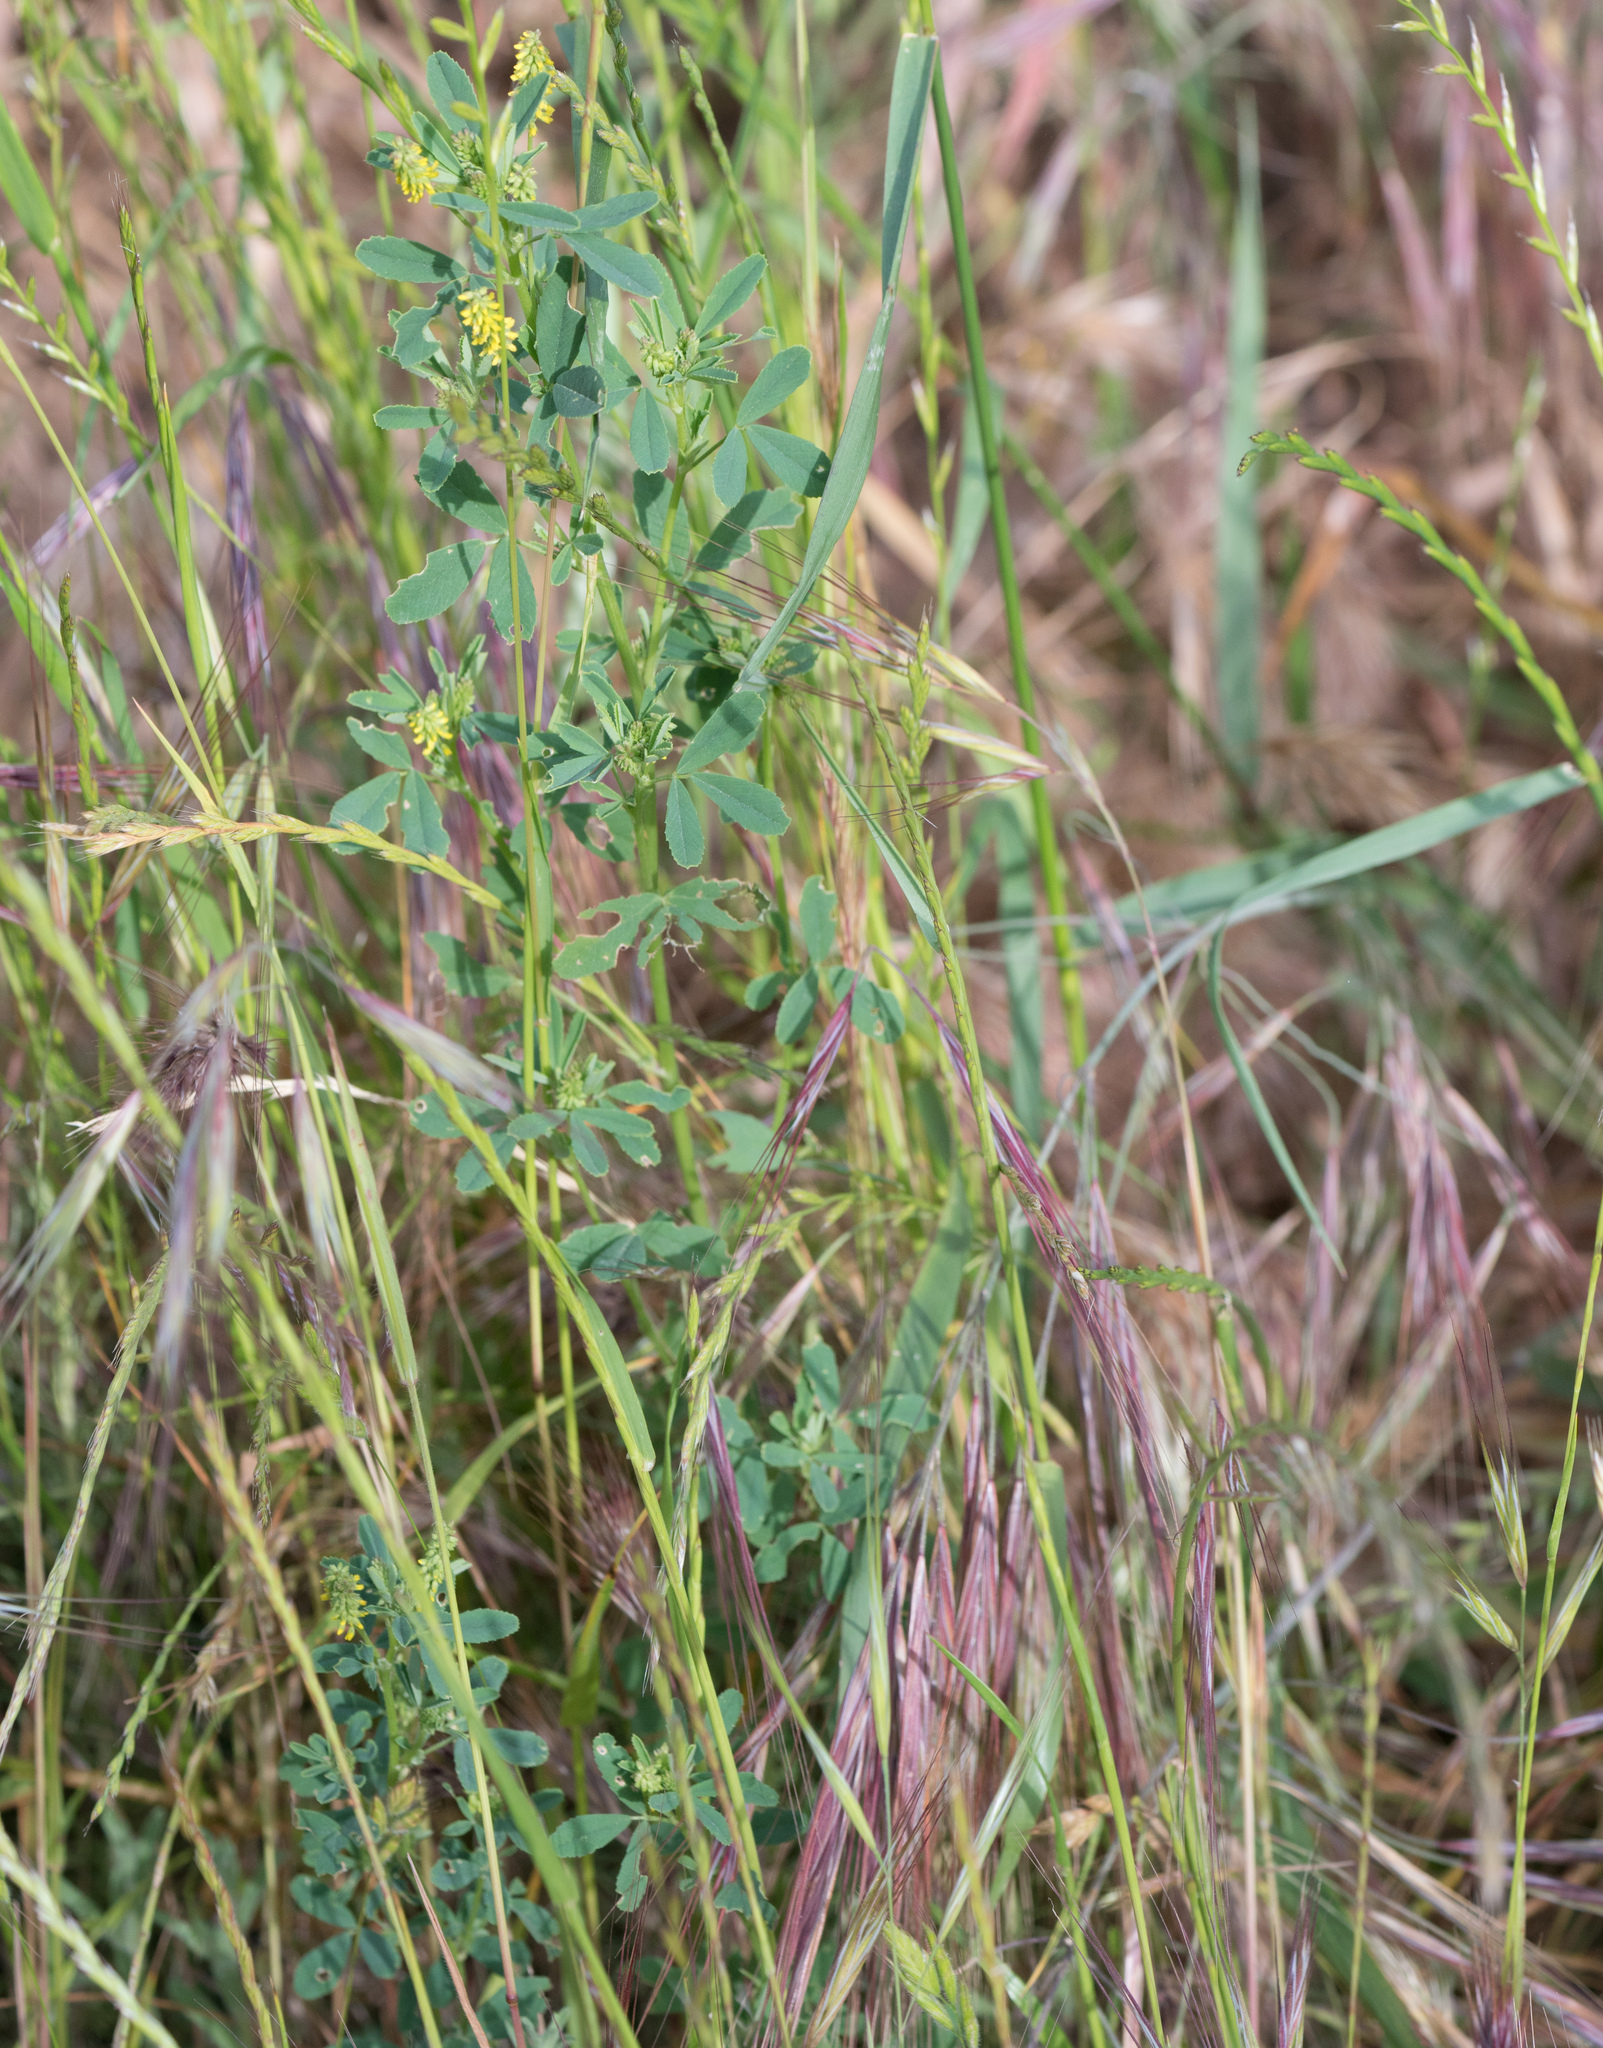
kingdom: Plantae
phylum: Tracheophyta
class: Magnoliopsida
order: Fabales
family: Fabaceae
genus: Melilotus
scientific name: Melilotus indicus
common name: Small melilot
